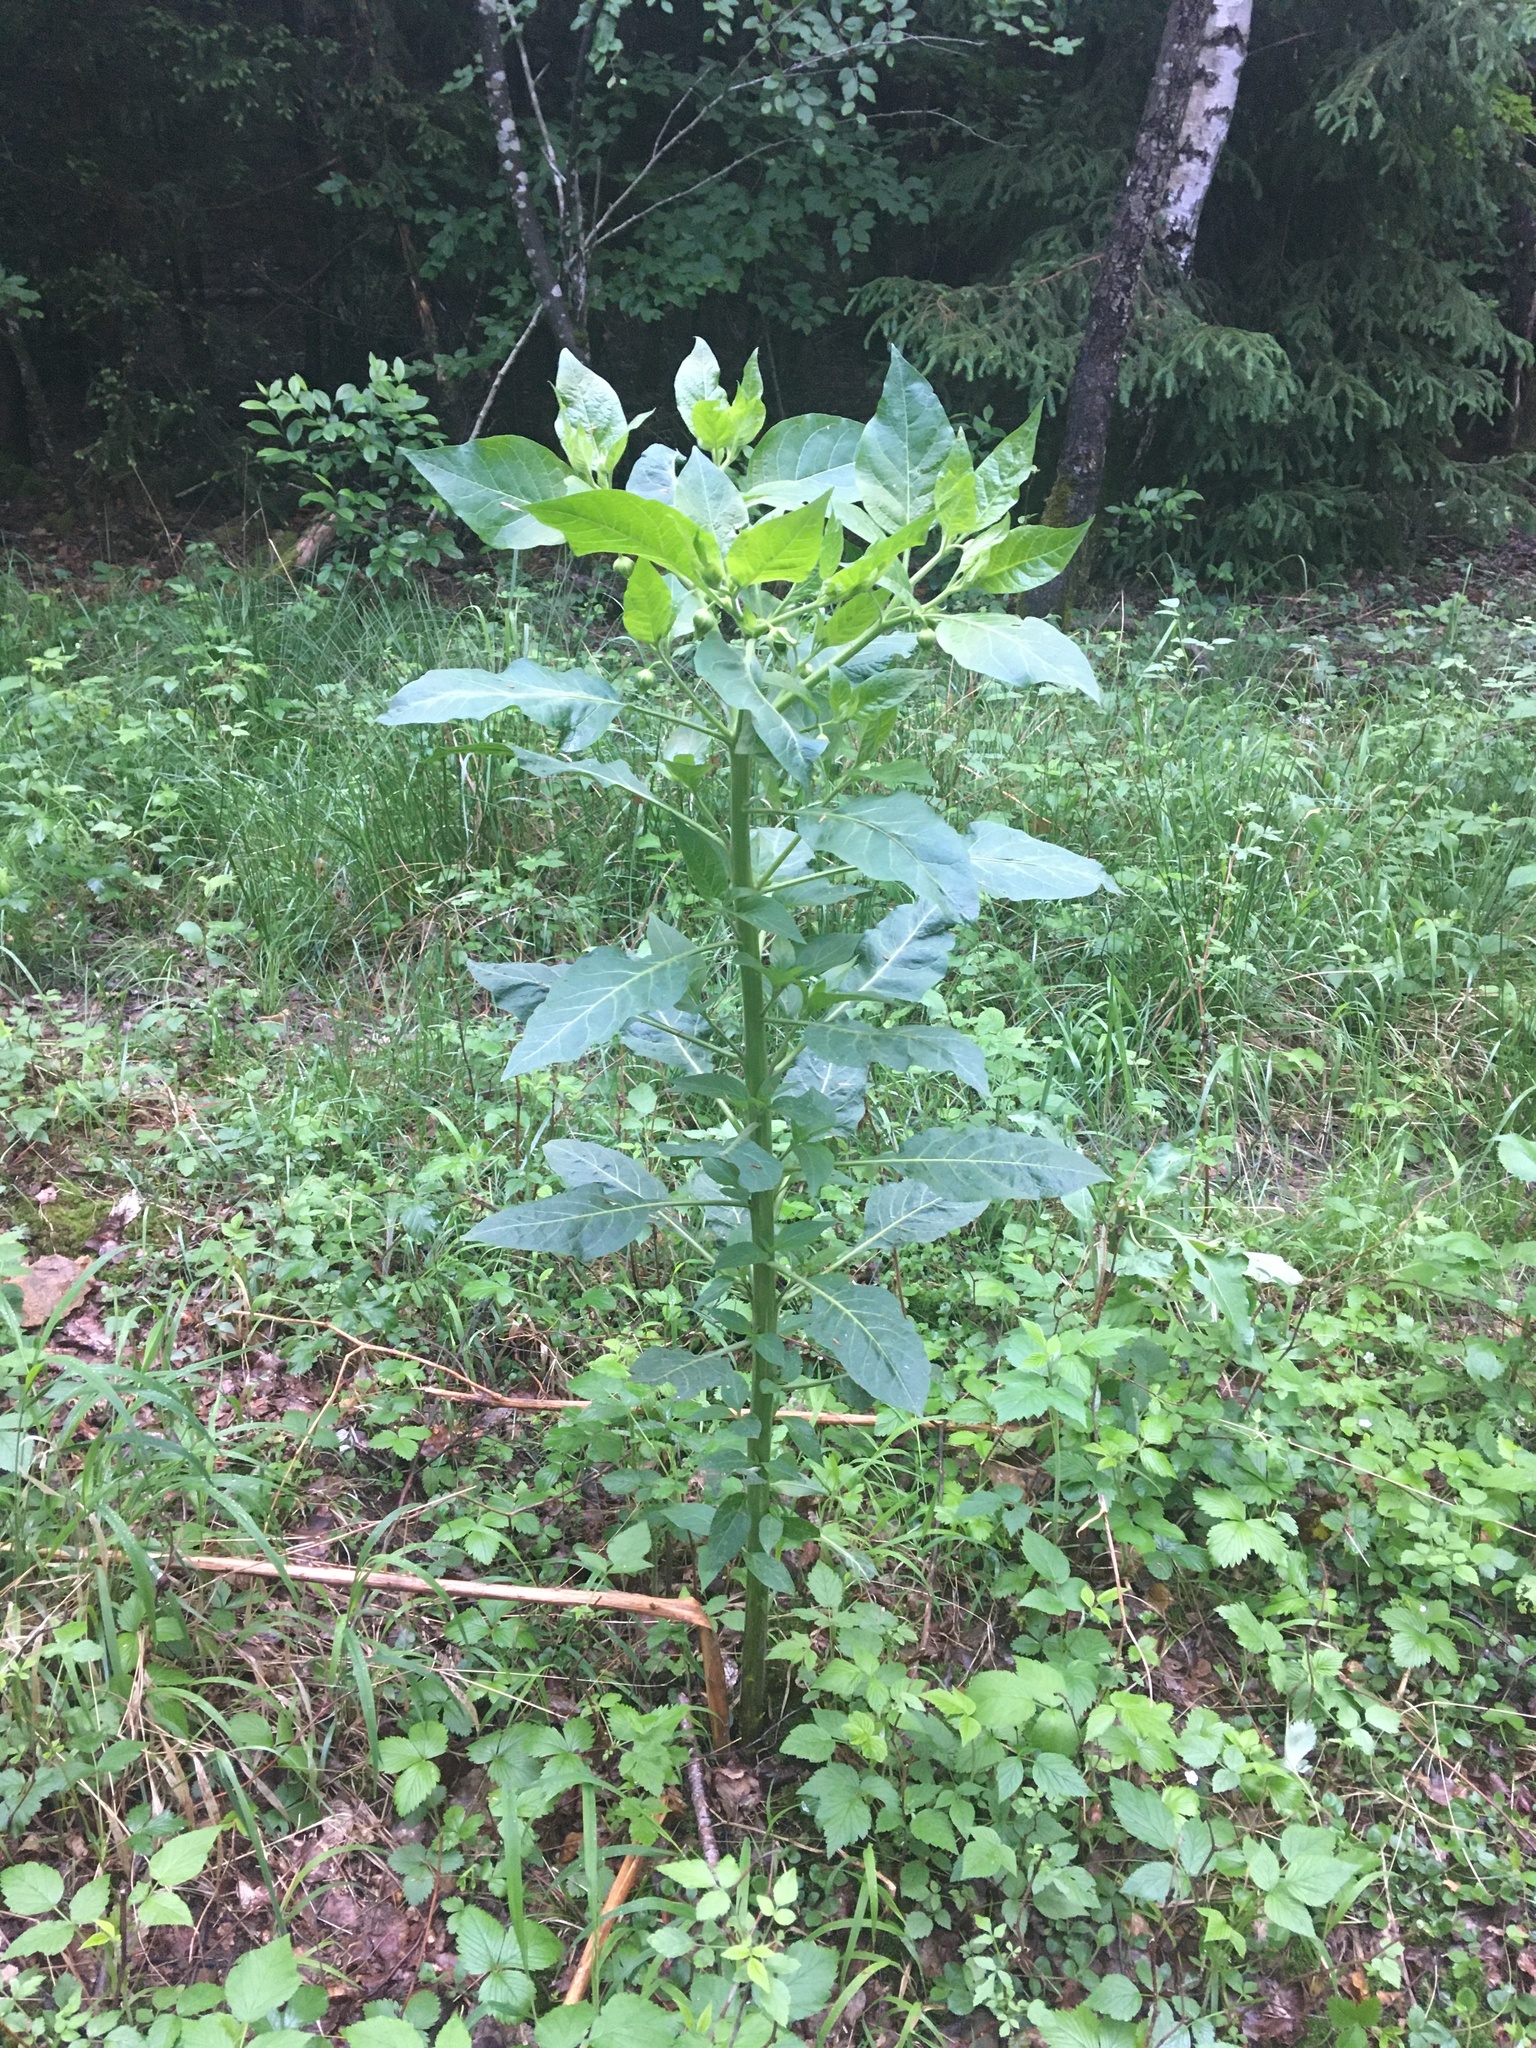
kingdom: Plantae
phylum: Tracheophyta
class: Magnoliopsida
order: Solanales
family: Solanaceae
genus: Atropa
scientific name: Atropa belladonna
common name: Deadly nightshade
